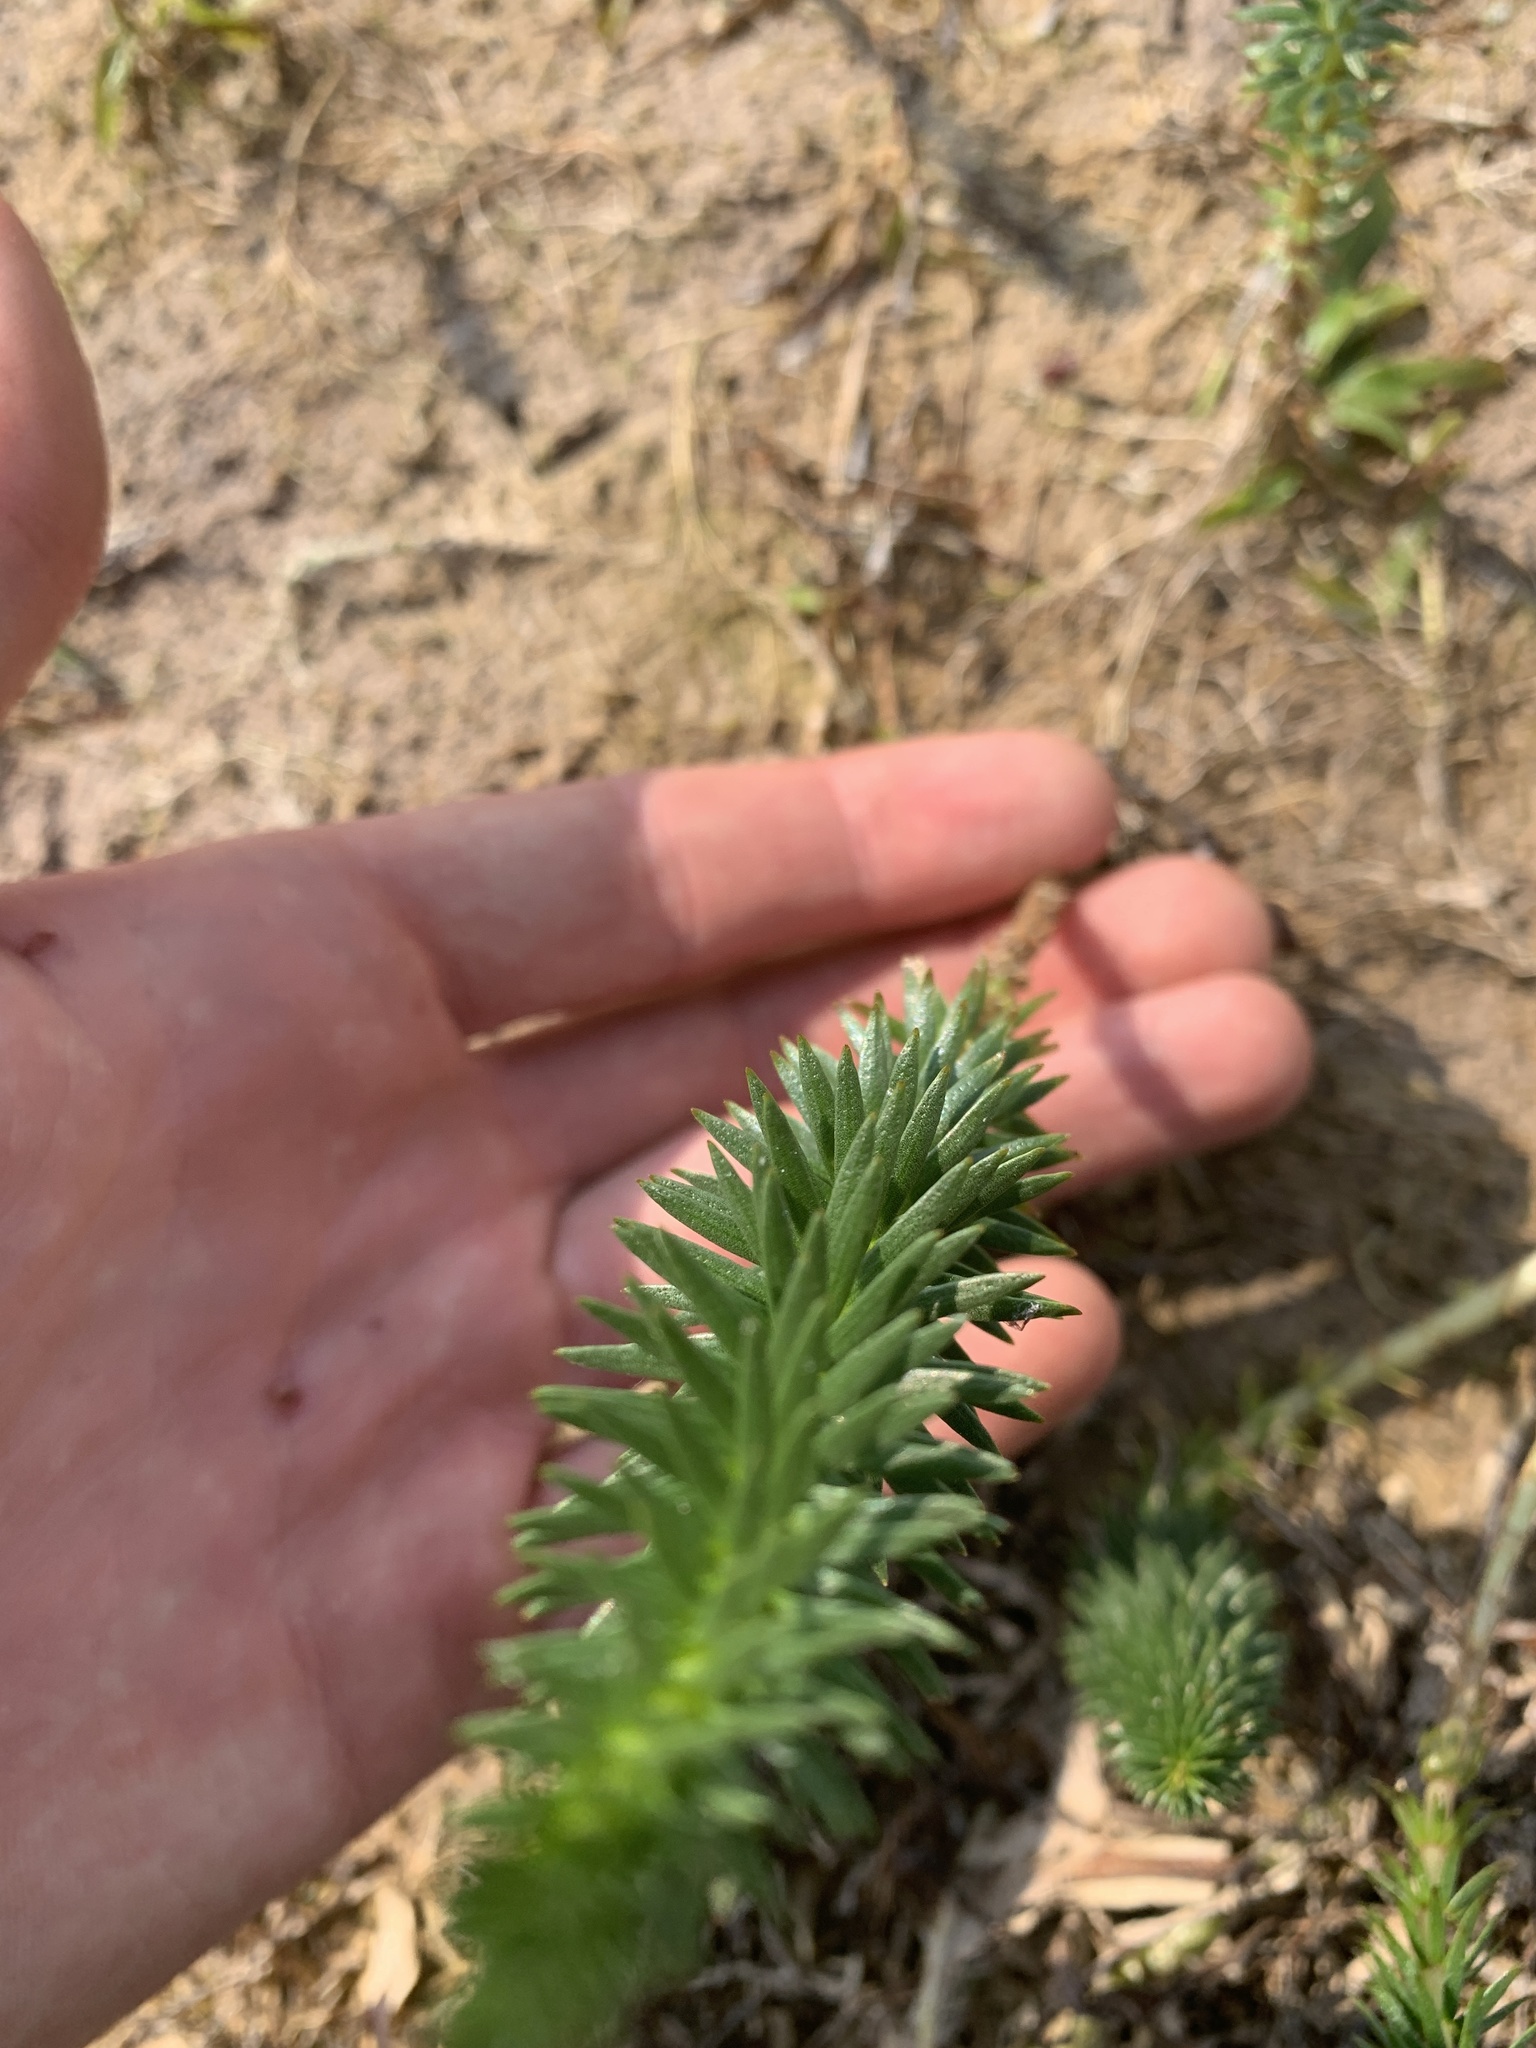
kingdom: Plantae
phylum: Tracheophyta
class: Magnoliopsida
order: Lamiales
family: Plantaginaceae
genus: Hippuris
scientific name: Hippuris vulgaris
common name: Mare's-tail
